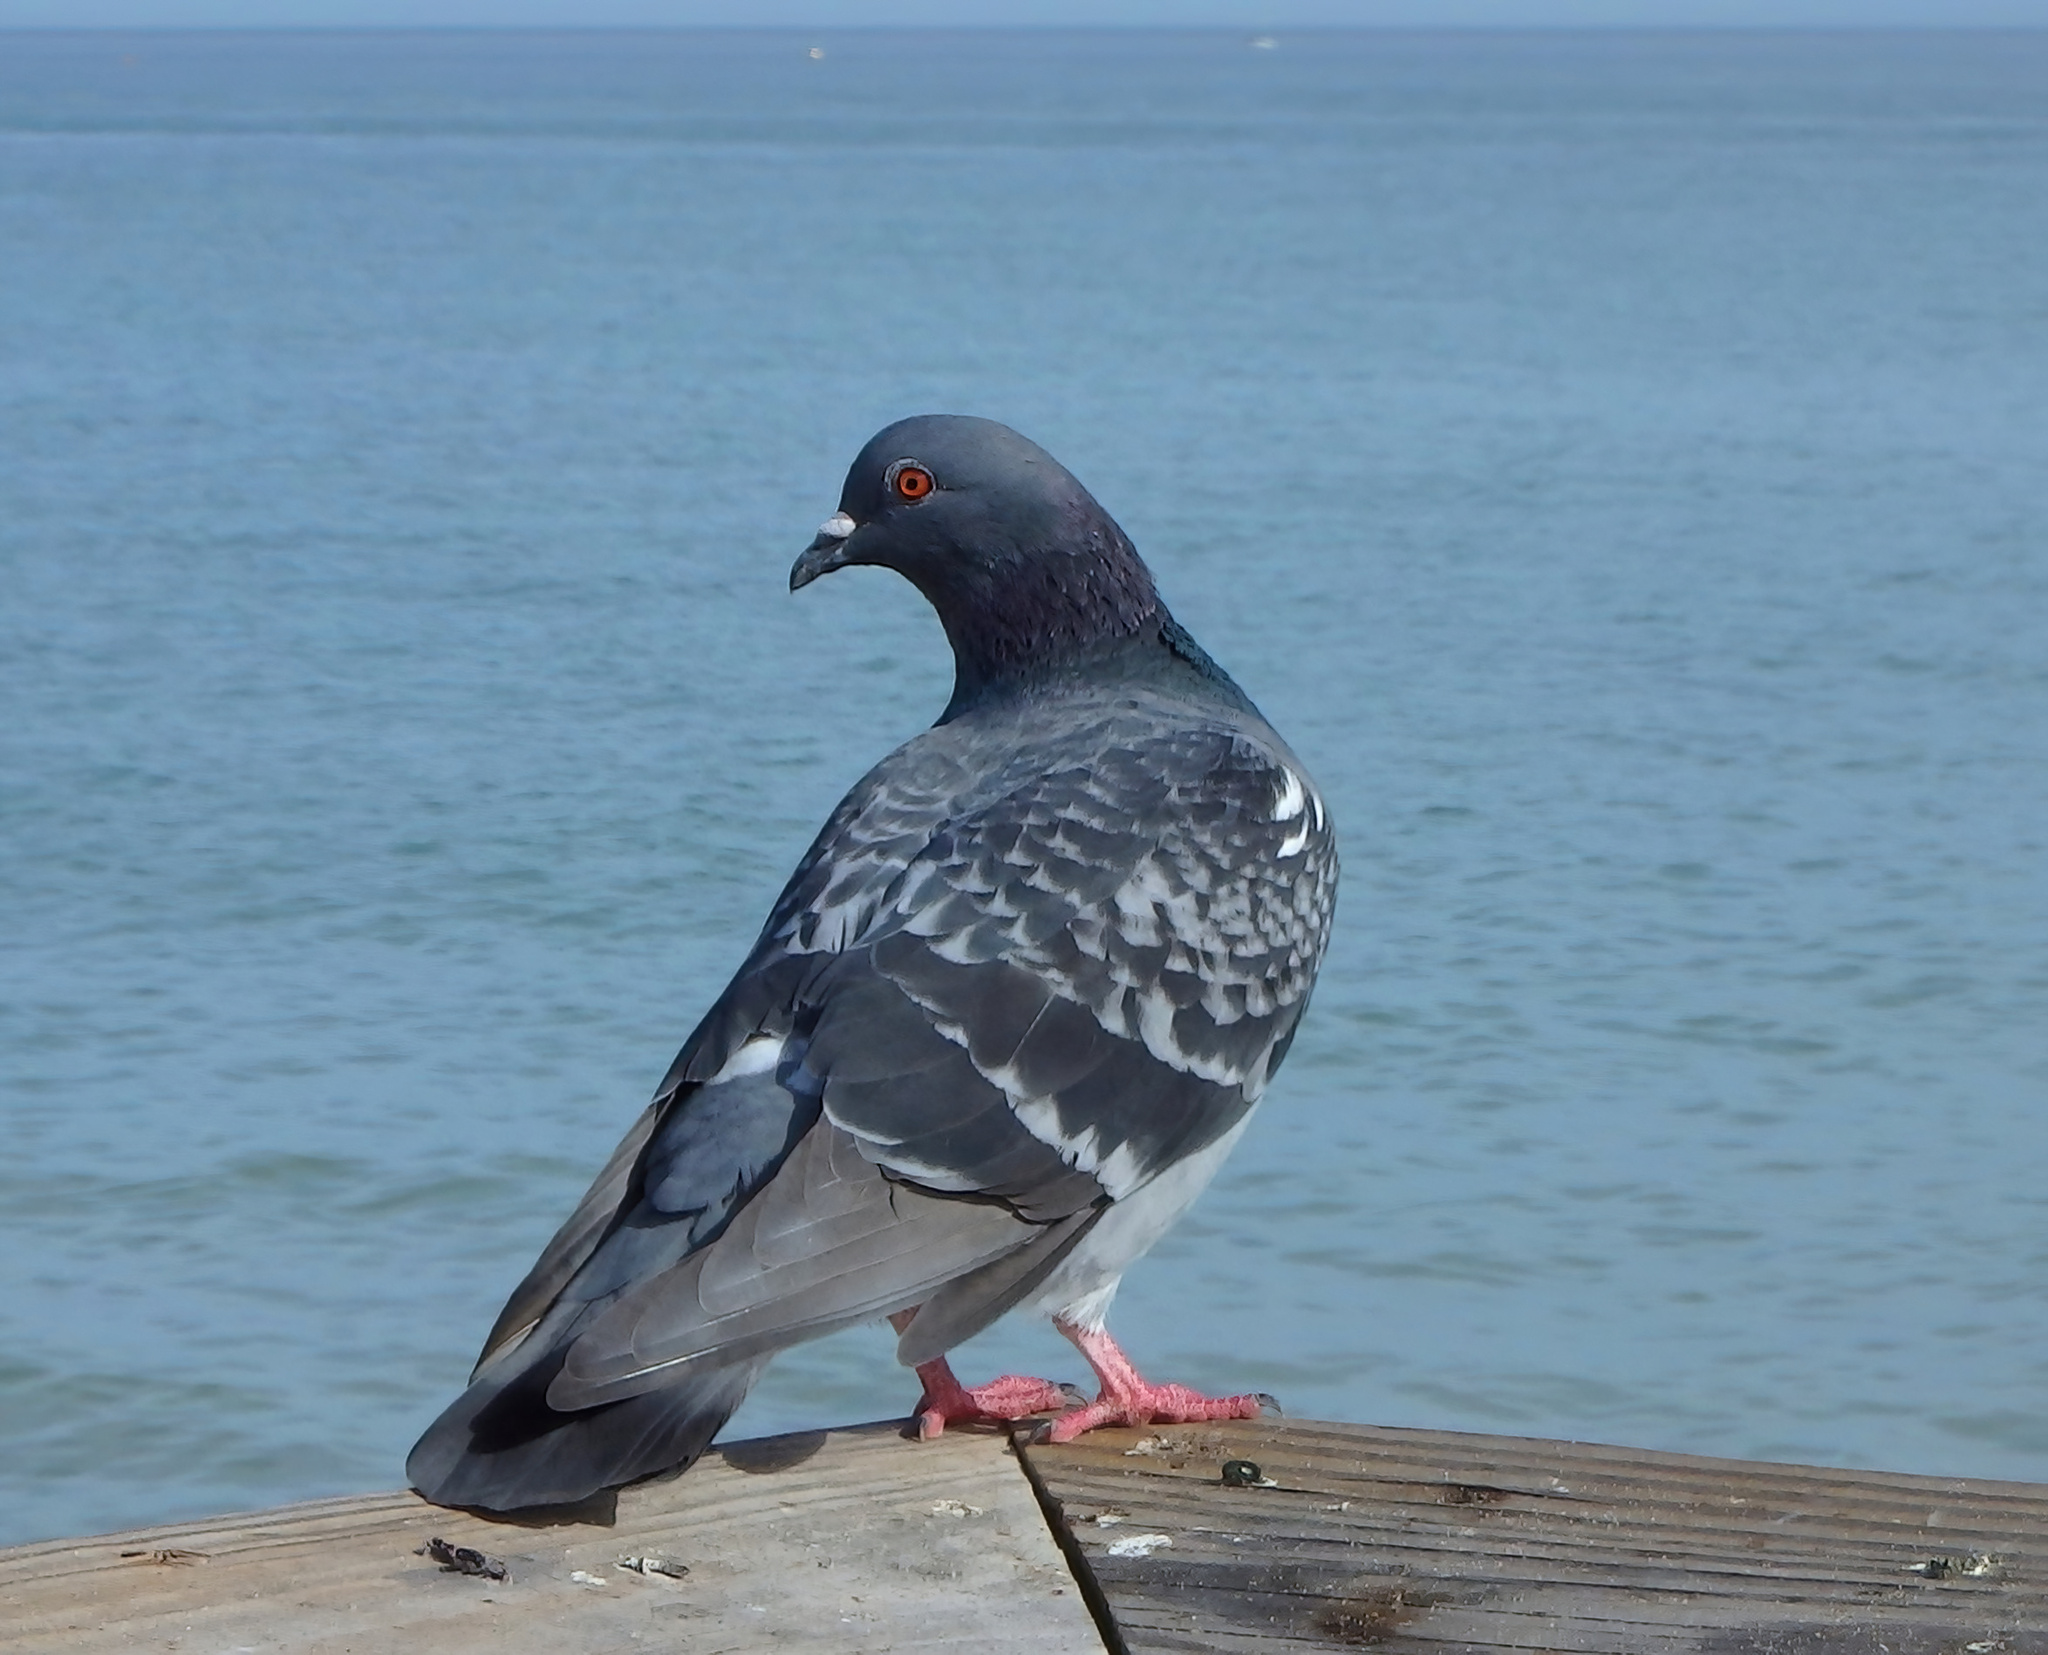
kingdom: Animalia
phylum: Chordata
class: Aves
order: Columbiformes
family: Columbidae
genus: Columba
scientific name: Columba livia
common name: Rock pigeon
